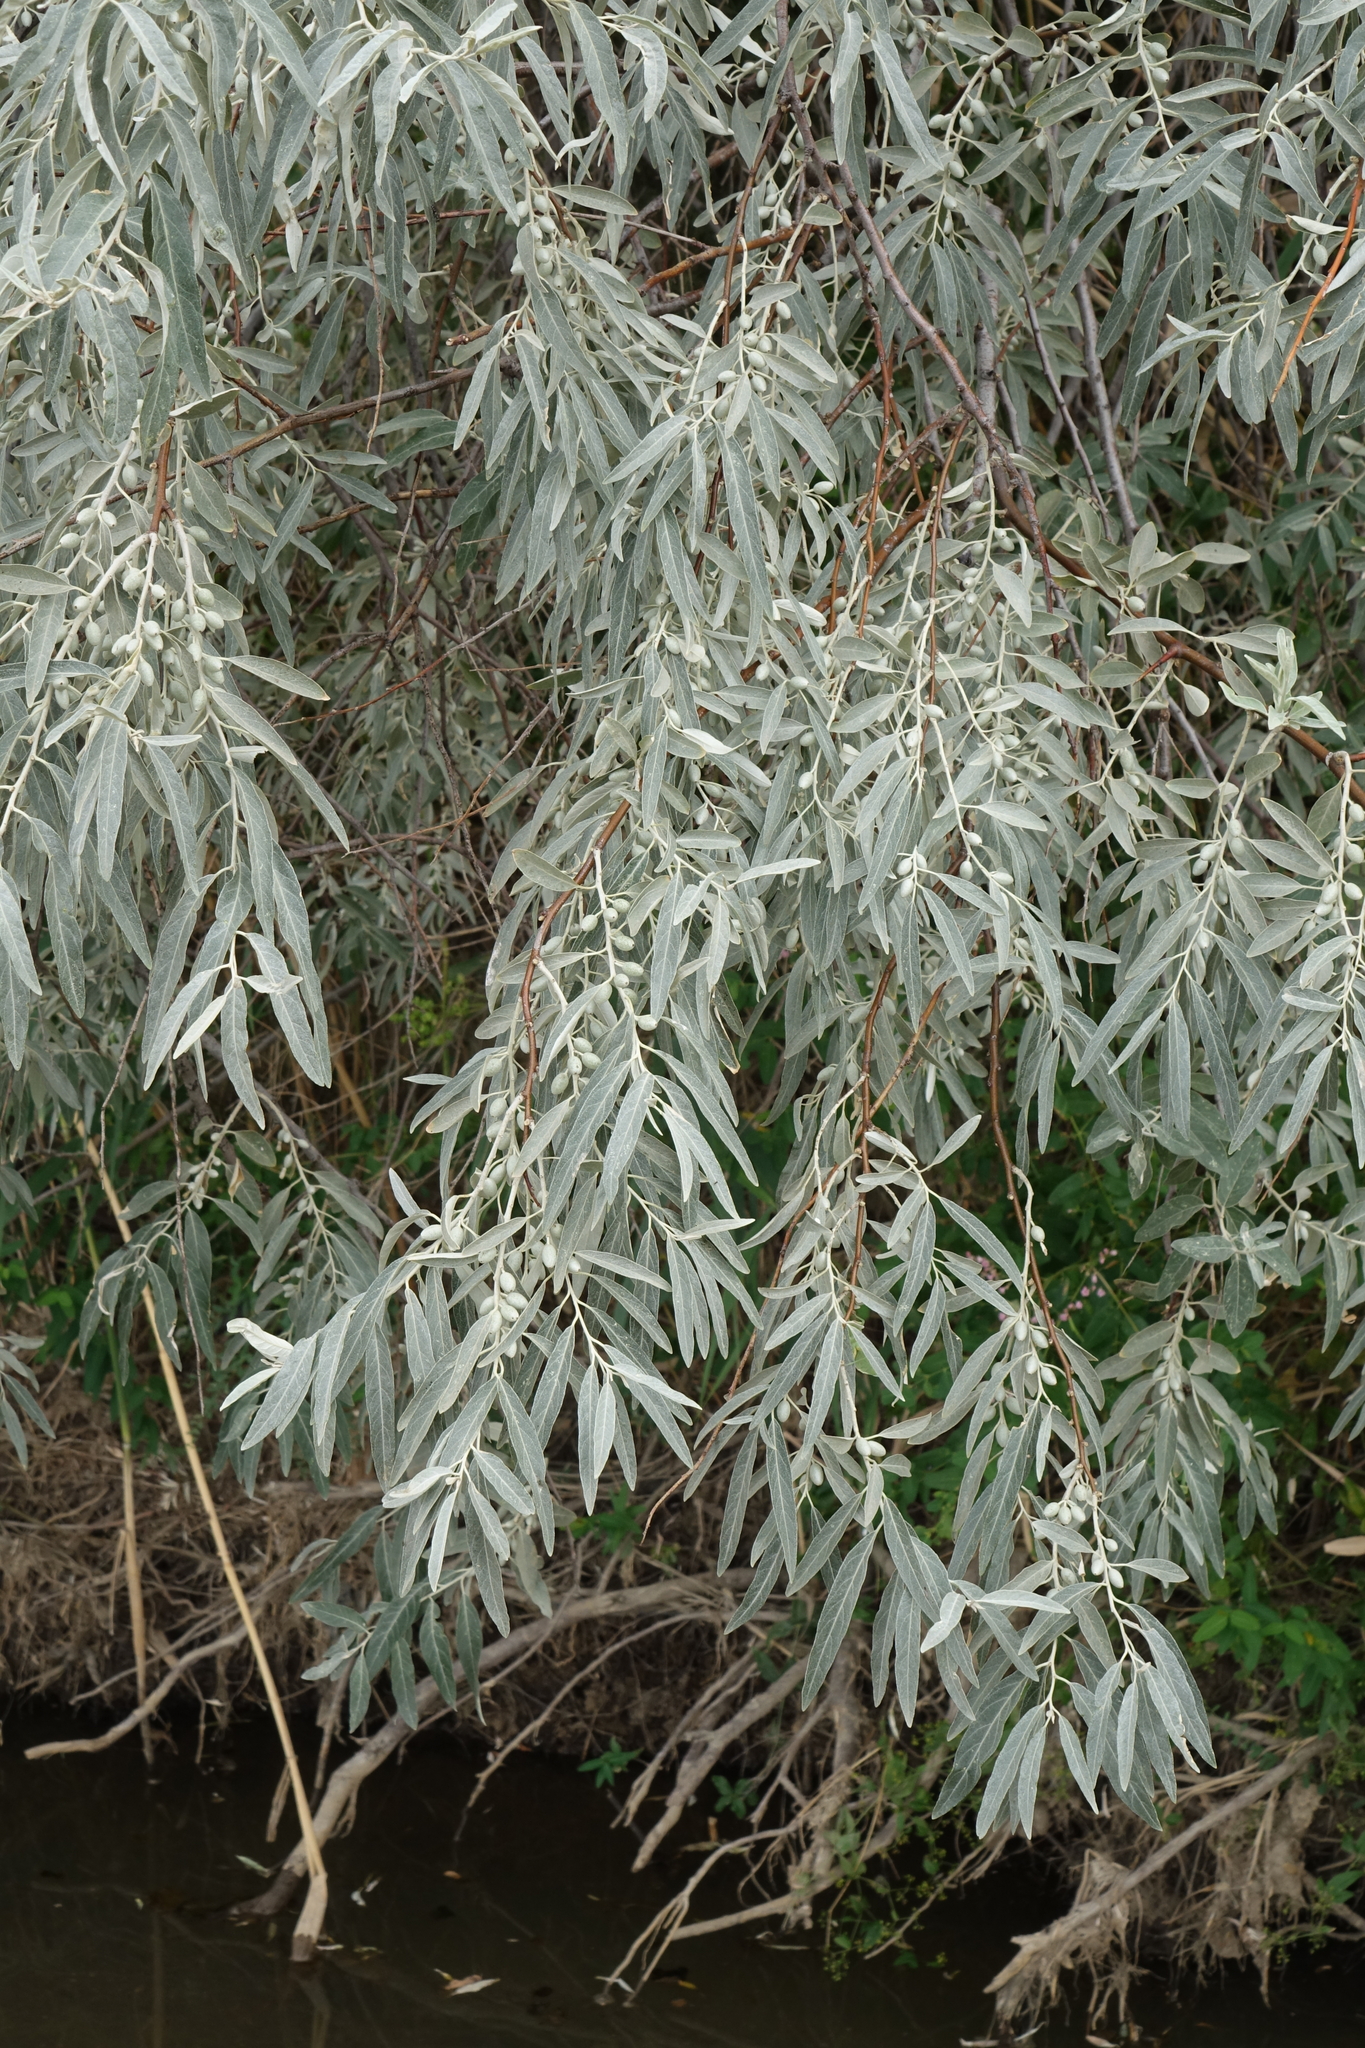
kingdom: Plantae
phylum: Tracheophyta
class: Magnoliopsida
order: Rosales
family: Elaeagnaceae
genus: Elaeagnus
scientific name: Elaeagnus angustifolia
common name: Russian olive
